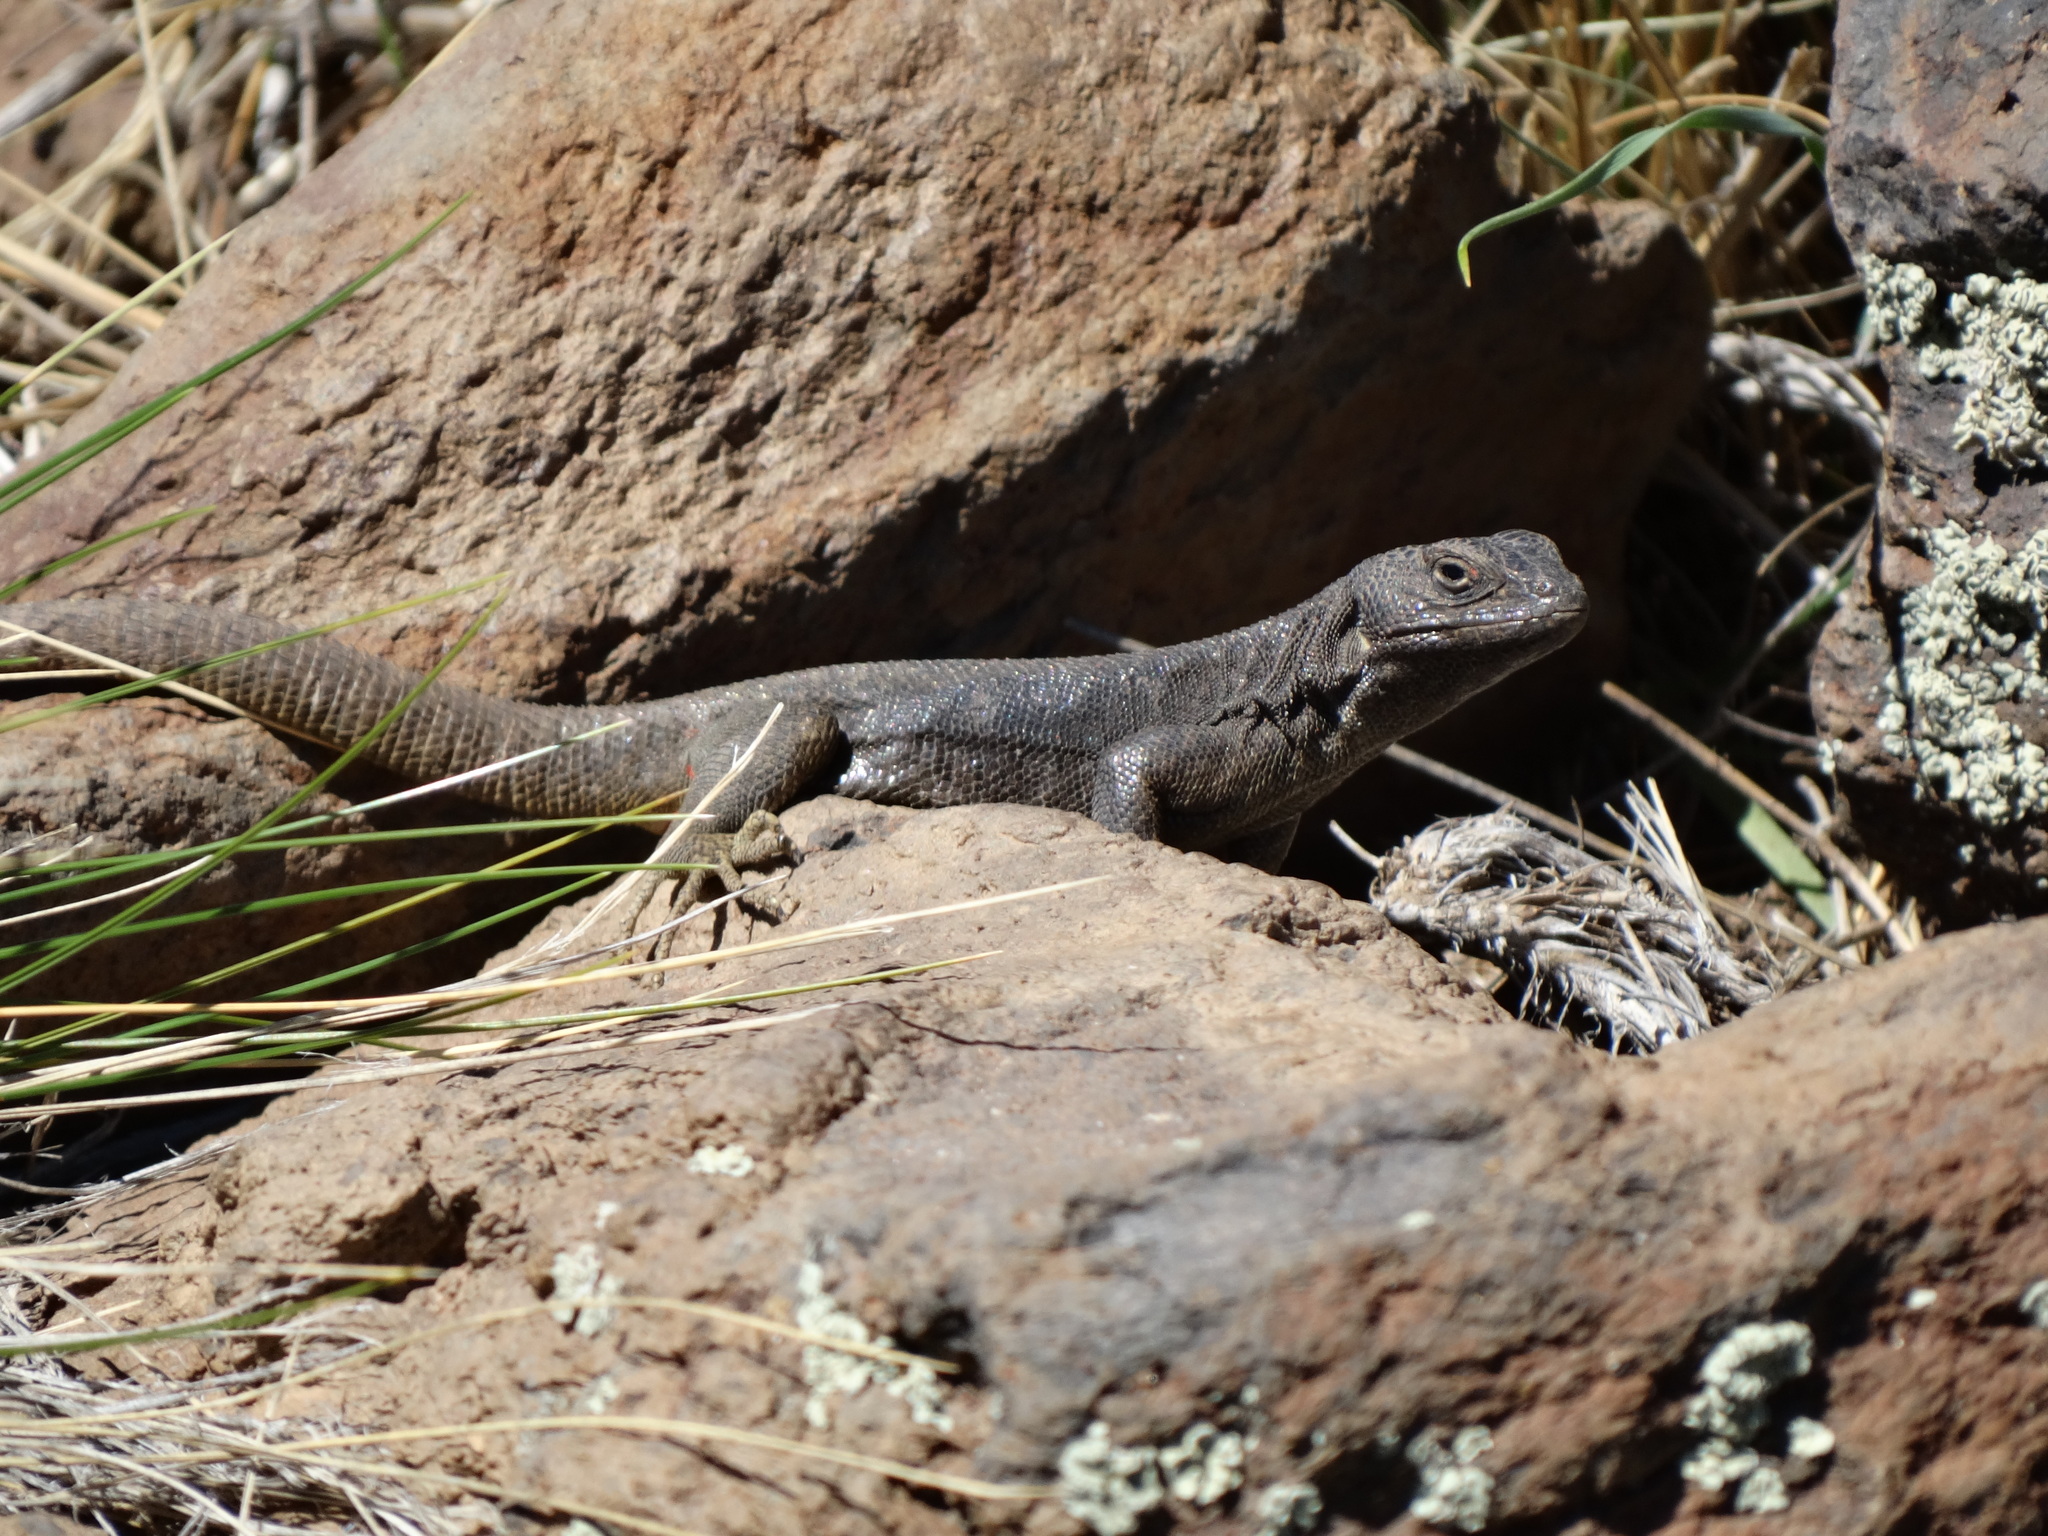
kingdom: Animalia
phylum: Chordata
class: Squamata
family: Liolaemidae
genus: Liolaemus
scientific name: Liolaemus austromendocinus
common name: Austromendocino tree iguana
